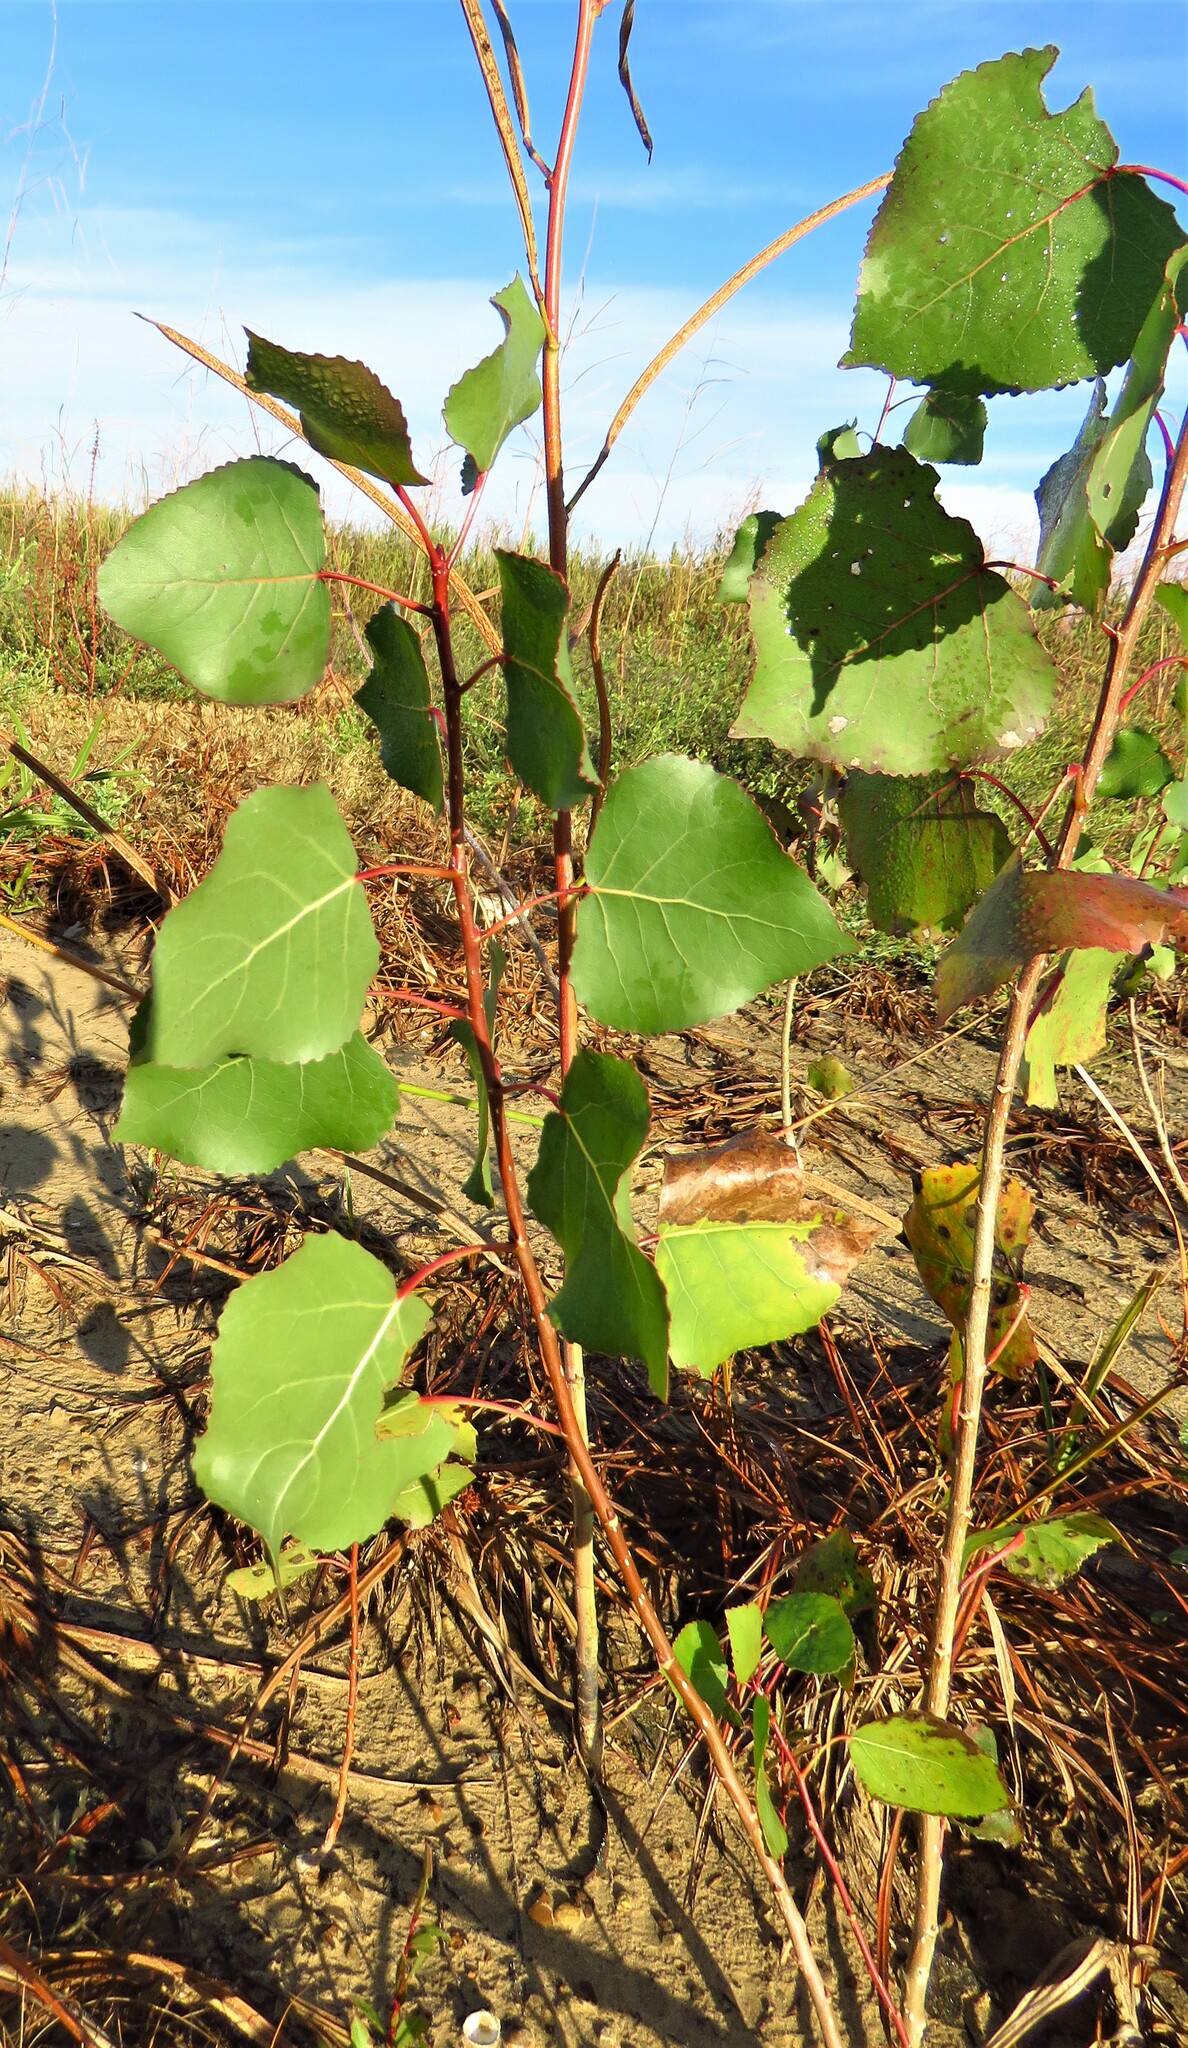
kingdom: Plantae
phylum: Tracheophyta
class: Magnoliopsida
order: Malpighiales
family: Salicaceae
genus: Populus
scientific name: Populus deltoides
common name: Eastern cottonwood
